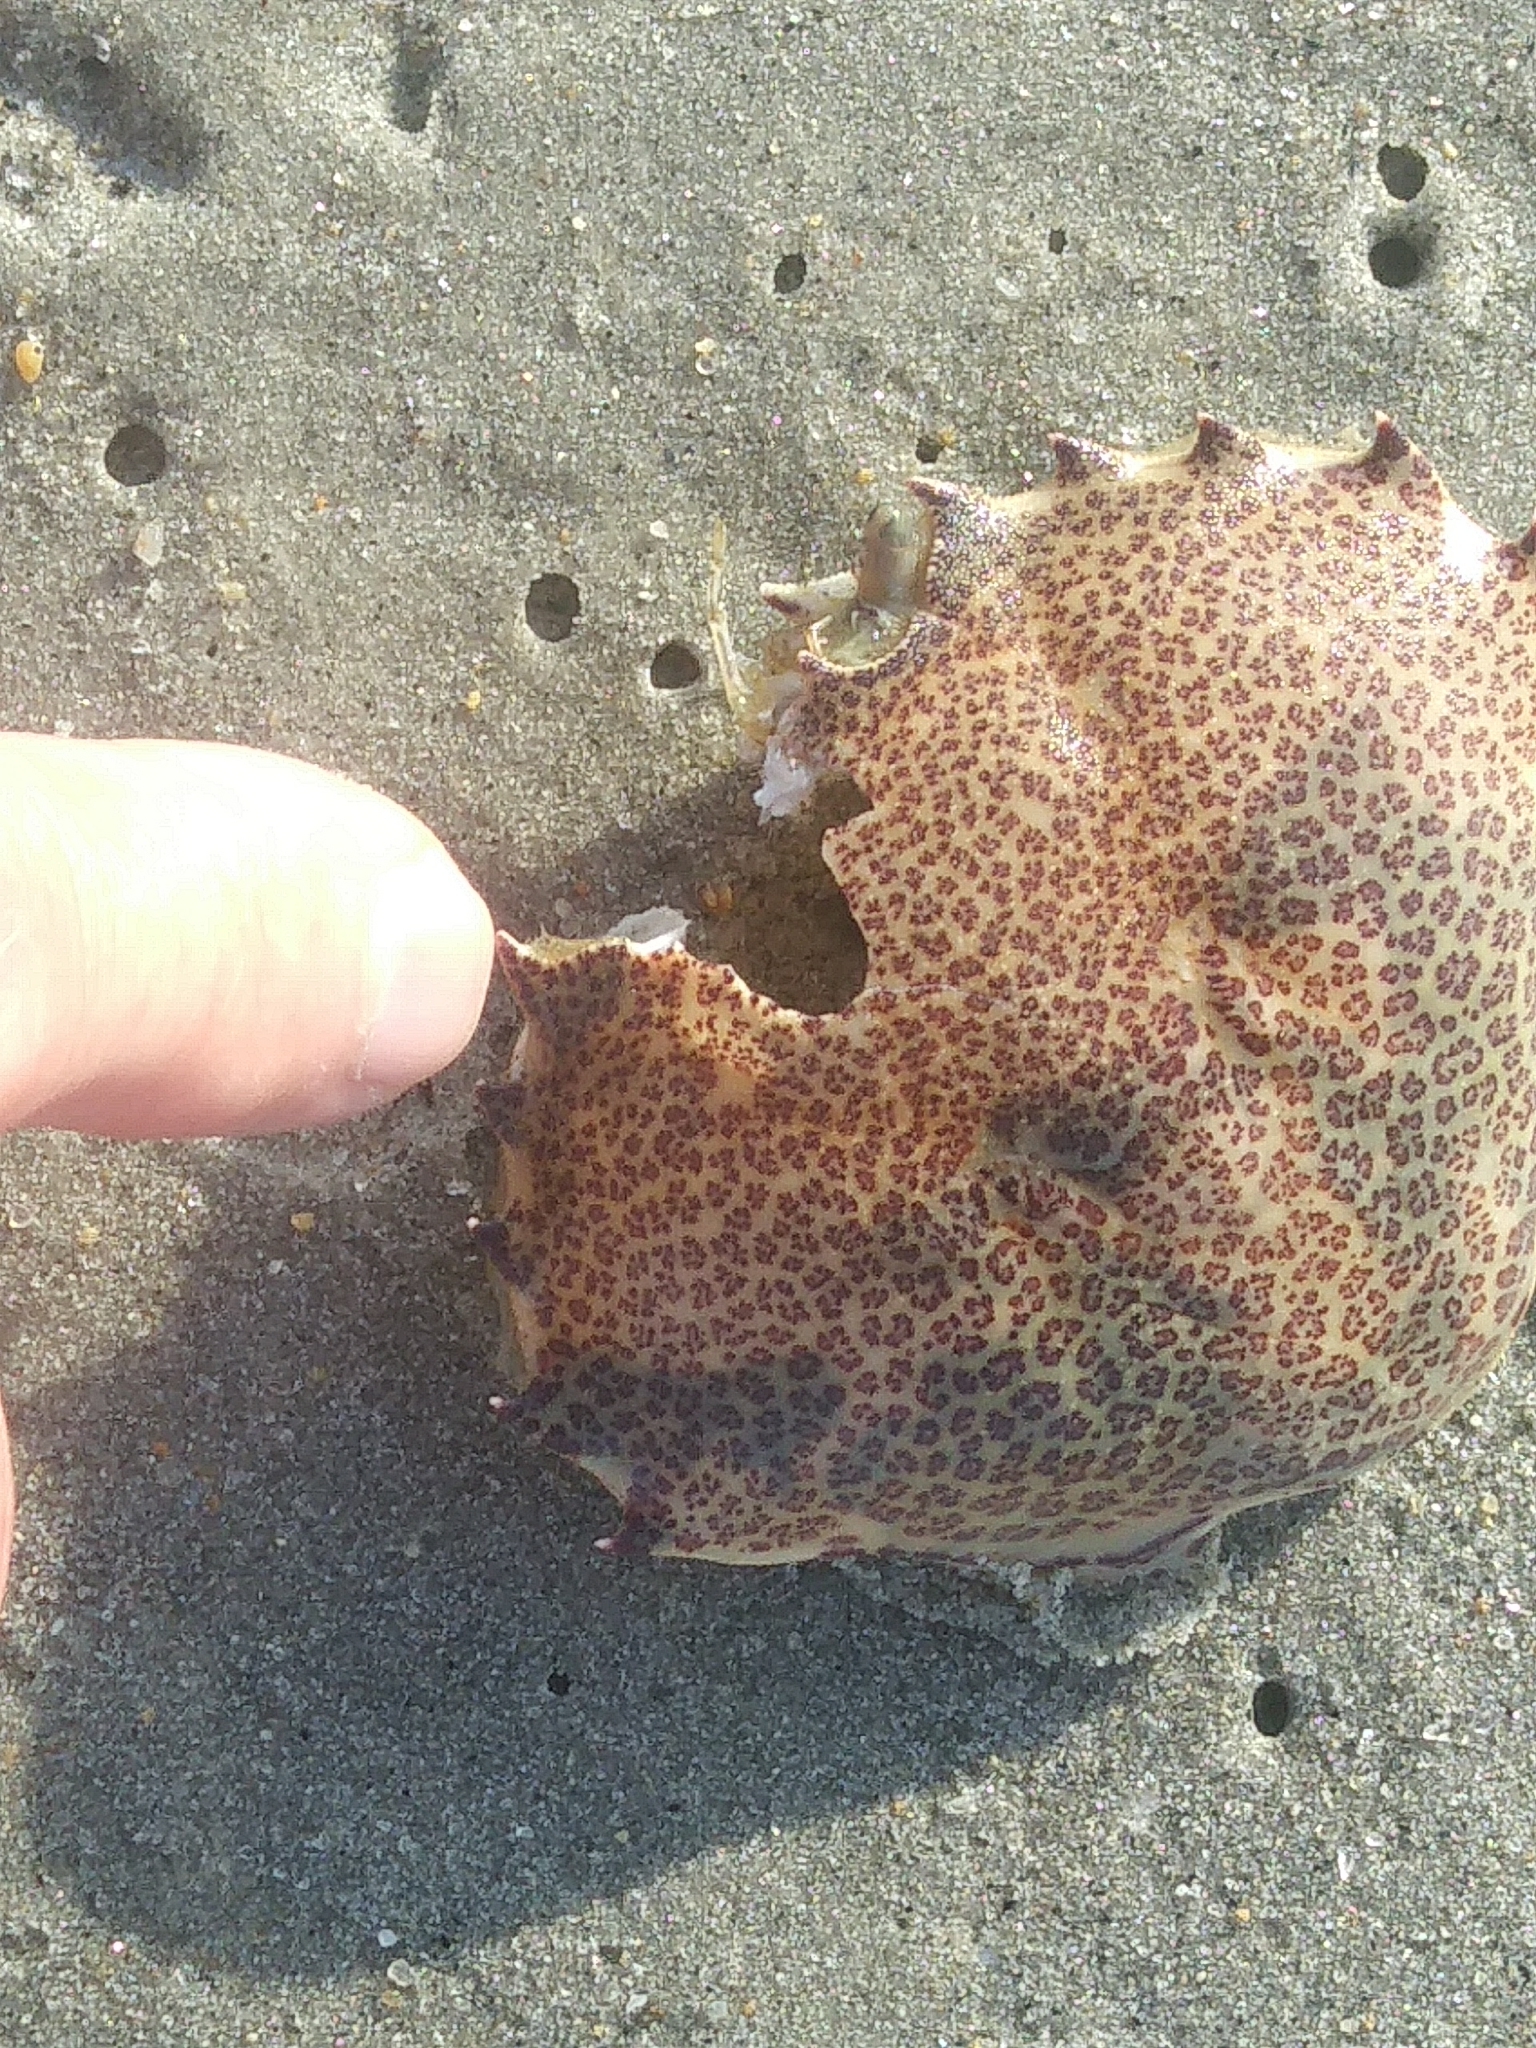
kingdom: Animalia
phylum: Arthropoda
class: Malacostraca
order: Decapoda
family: Ovalipidae
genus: Ovalipes
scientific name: Ovalipes ocellatus
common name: Lady crab
